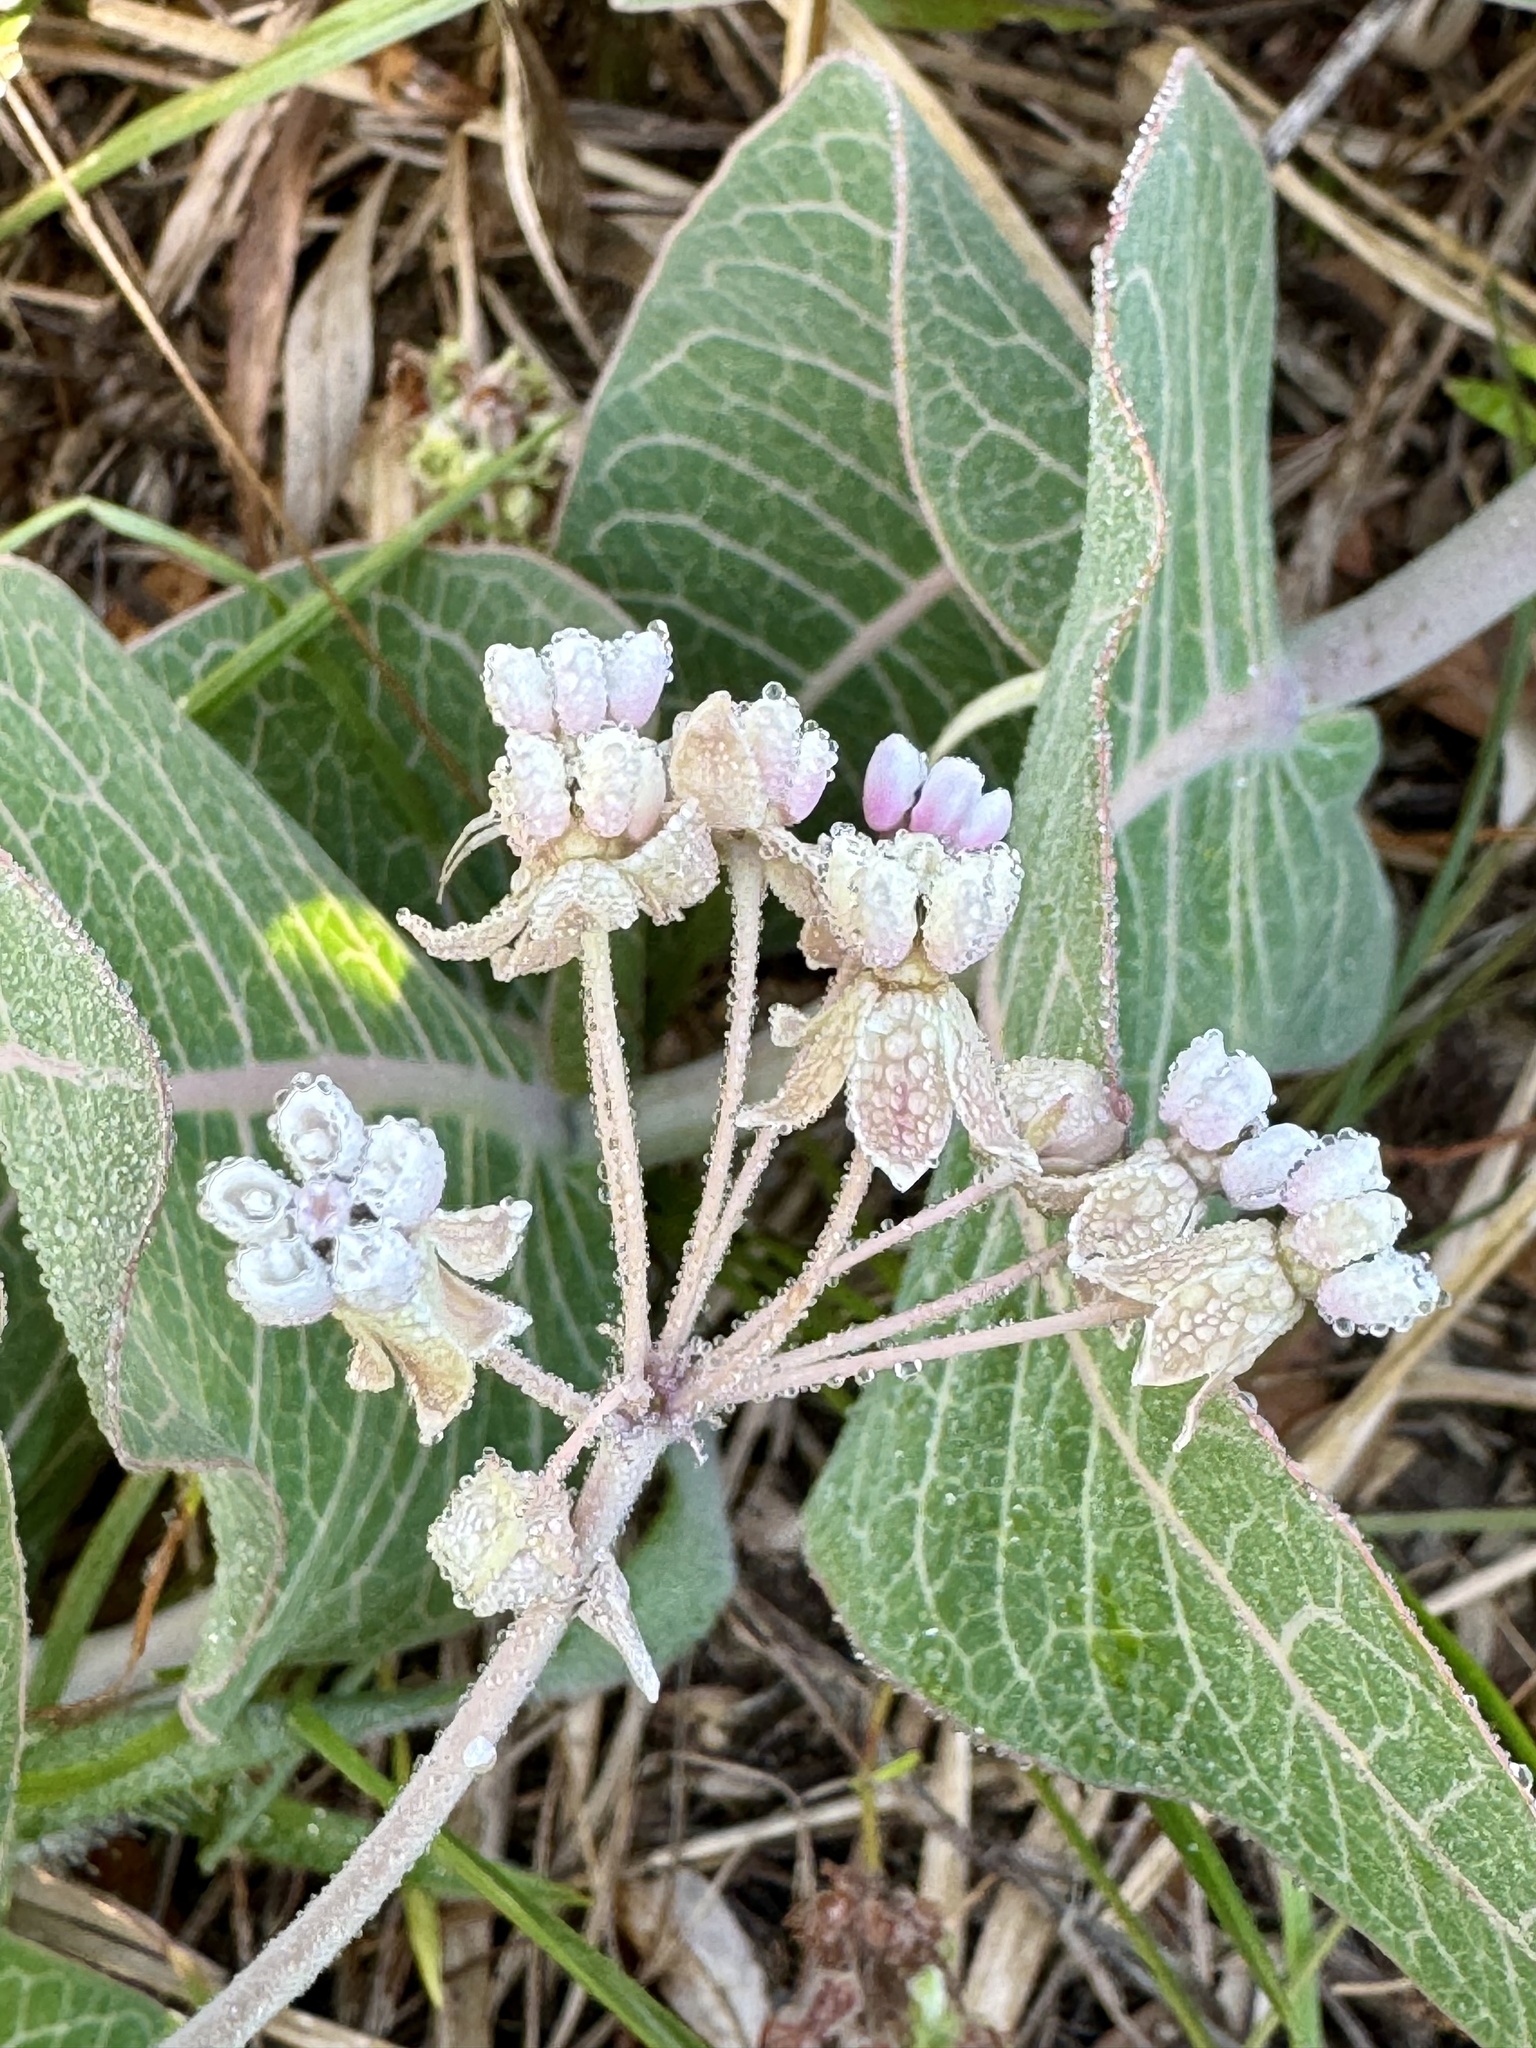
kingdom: Plantae
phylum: Tracheophyta
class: Magnoliopsida
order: Gentianales
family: Apocynaceae
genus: Asclepias
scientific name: Asclepias humistrata
